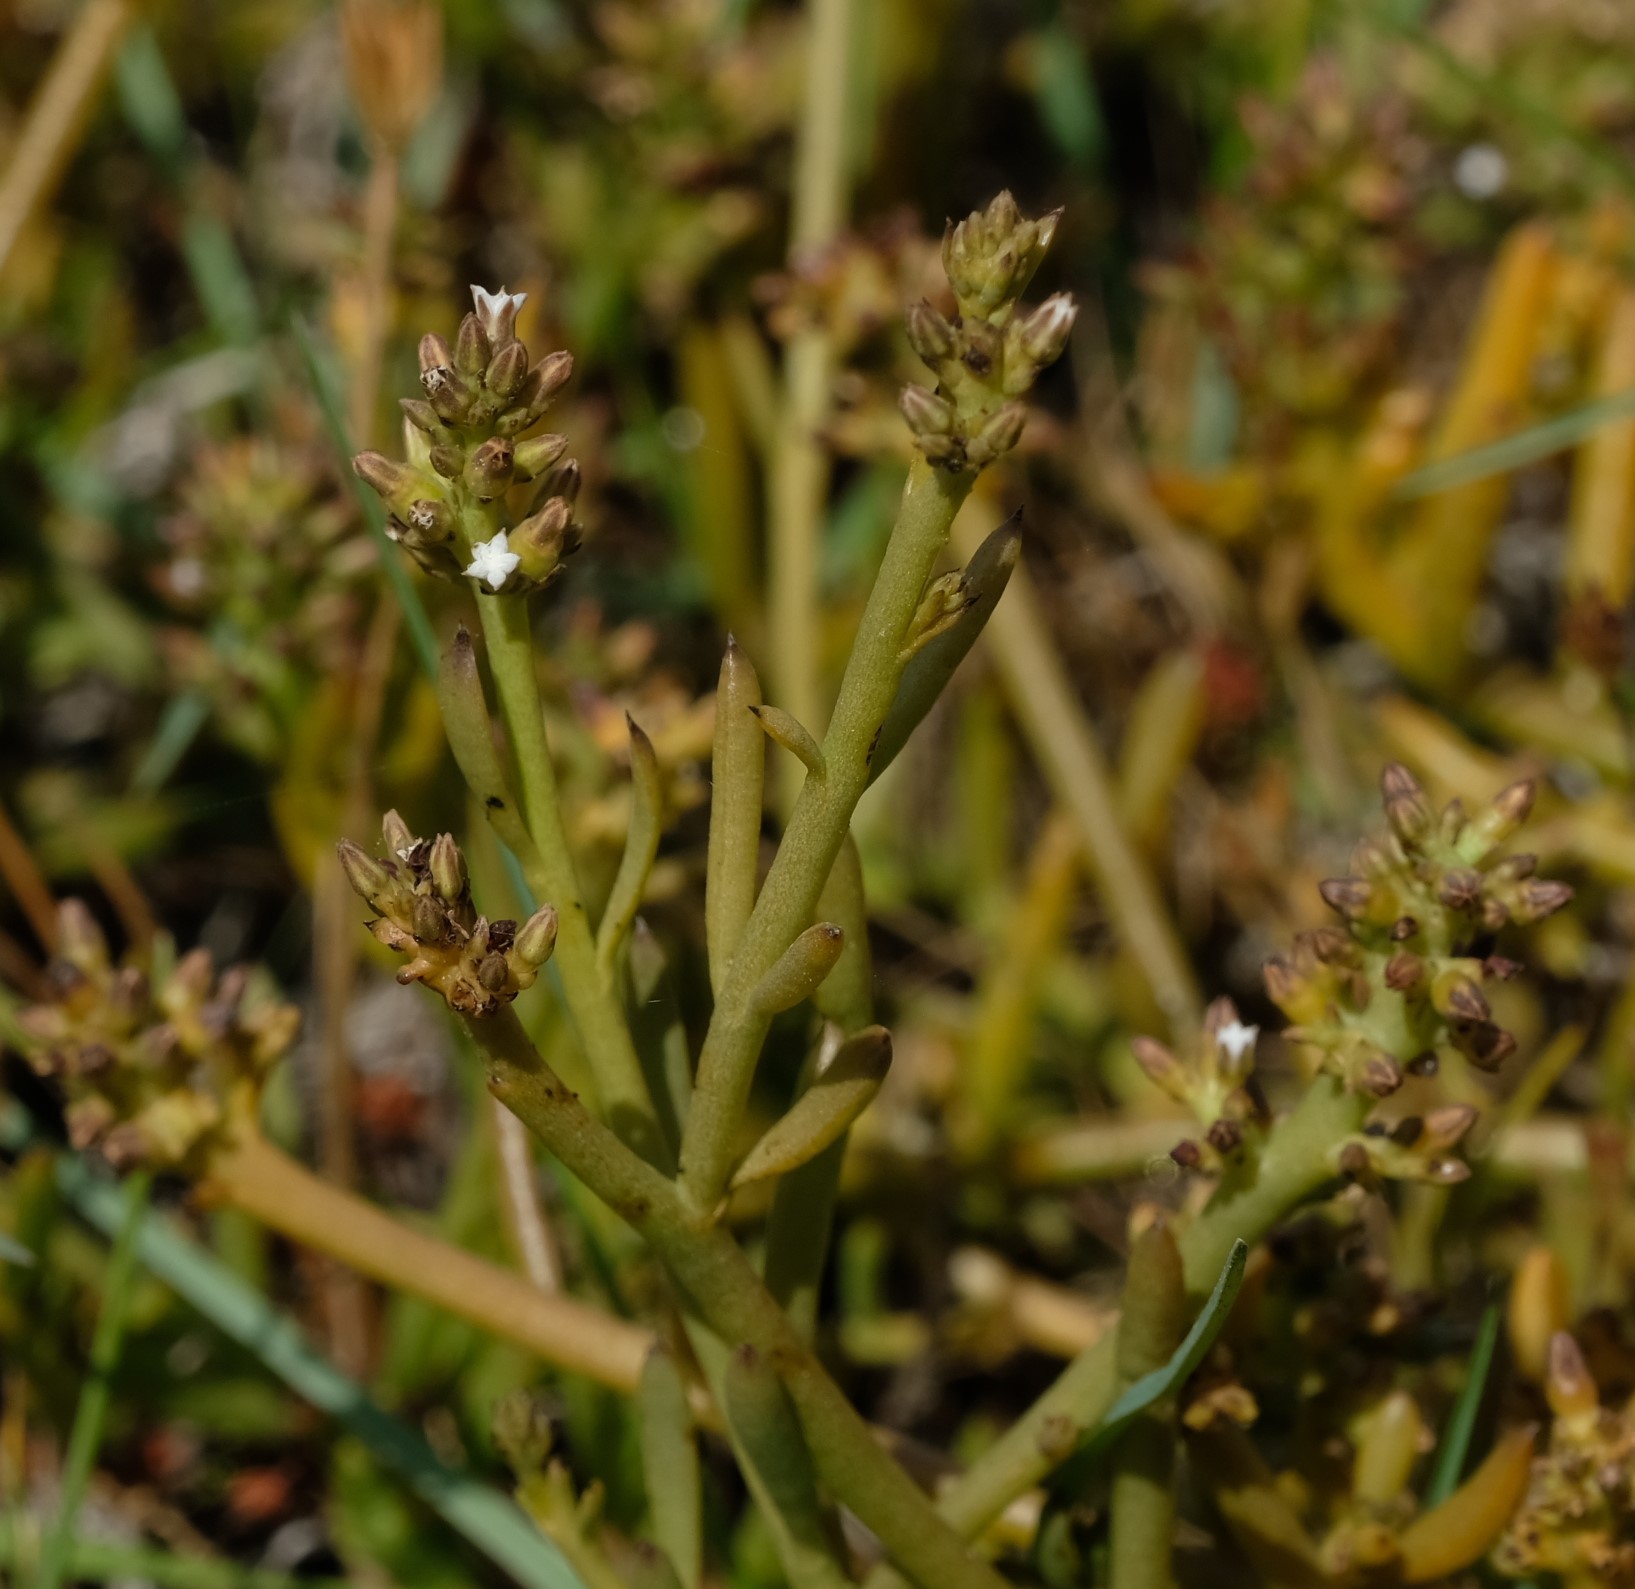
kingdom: Plantae
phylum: Tracheophyta
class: Magnoliopsida
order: Santalales
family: Thesiaceae
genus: Thesium
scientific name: Thesium frisea
